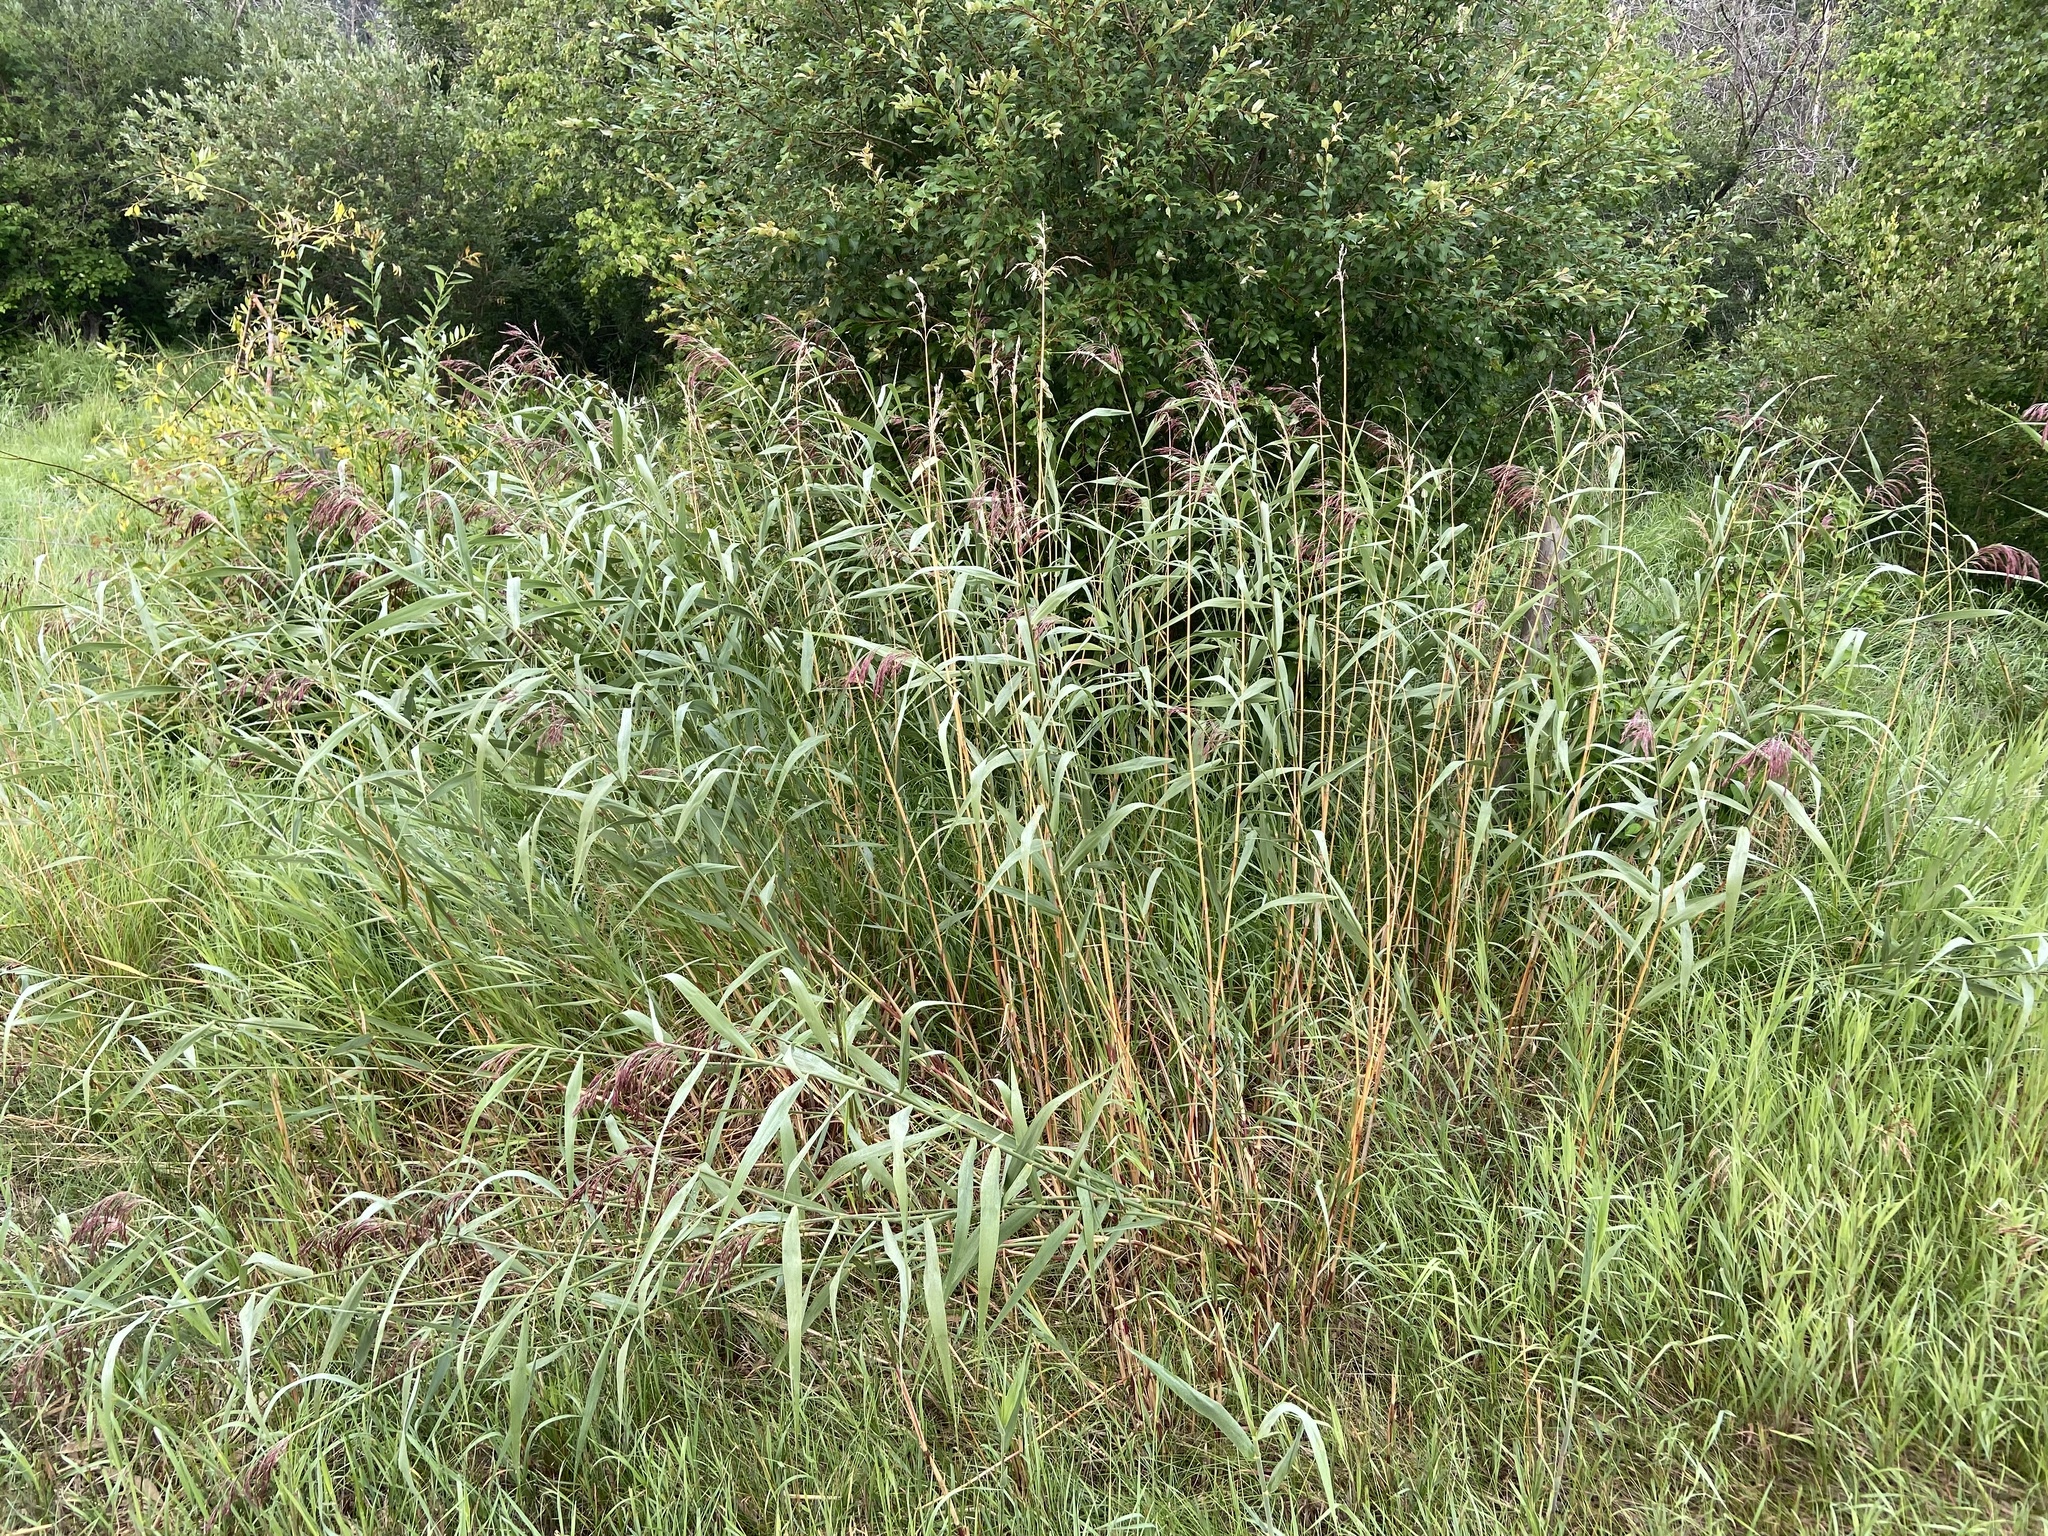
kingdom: Plantae
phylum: Tracheophyta
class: Liliopsida
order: Poales
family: Poaceae
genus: Phragmites
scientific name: Phragmites australis
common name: Common reed
